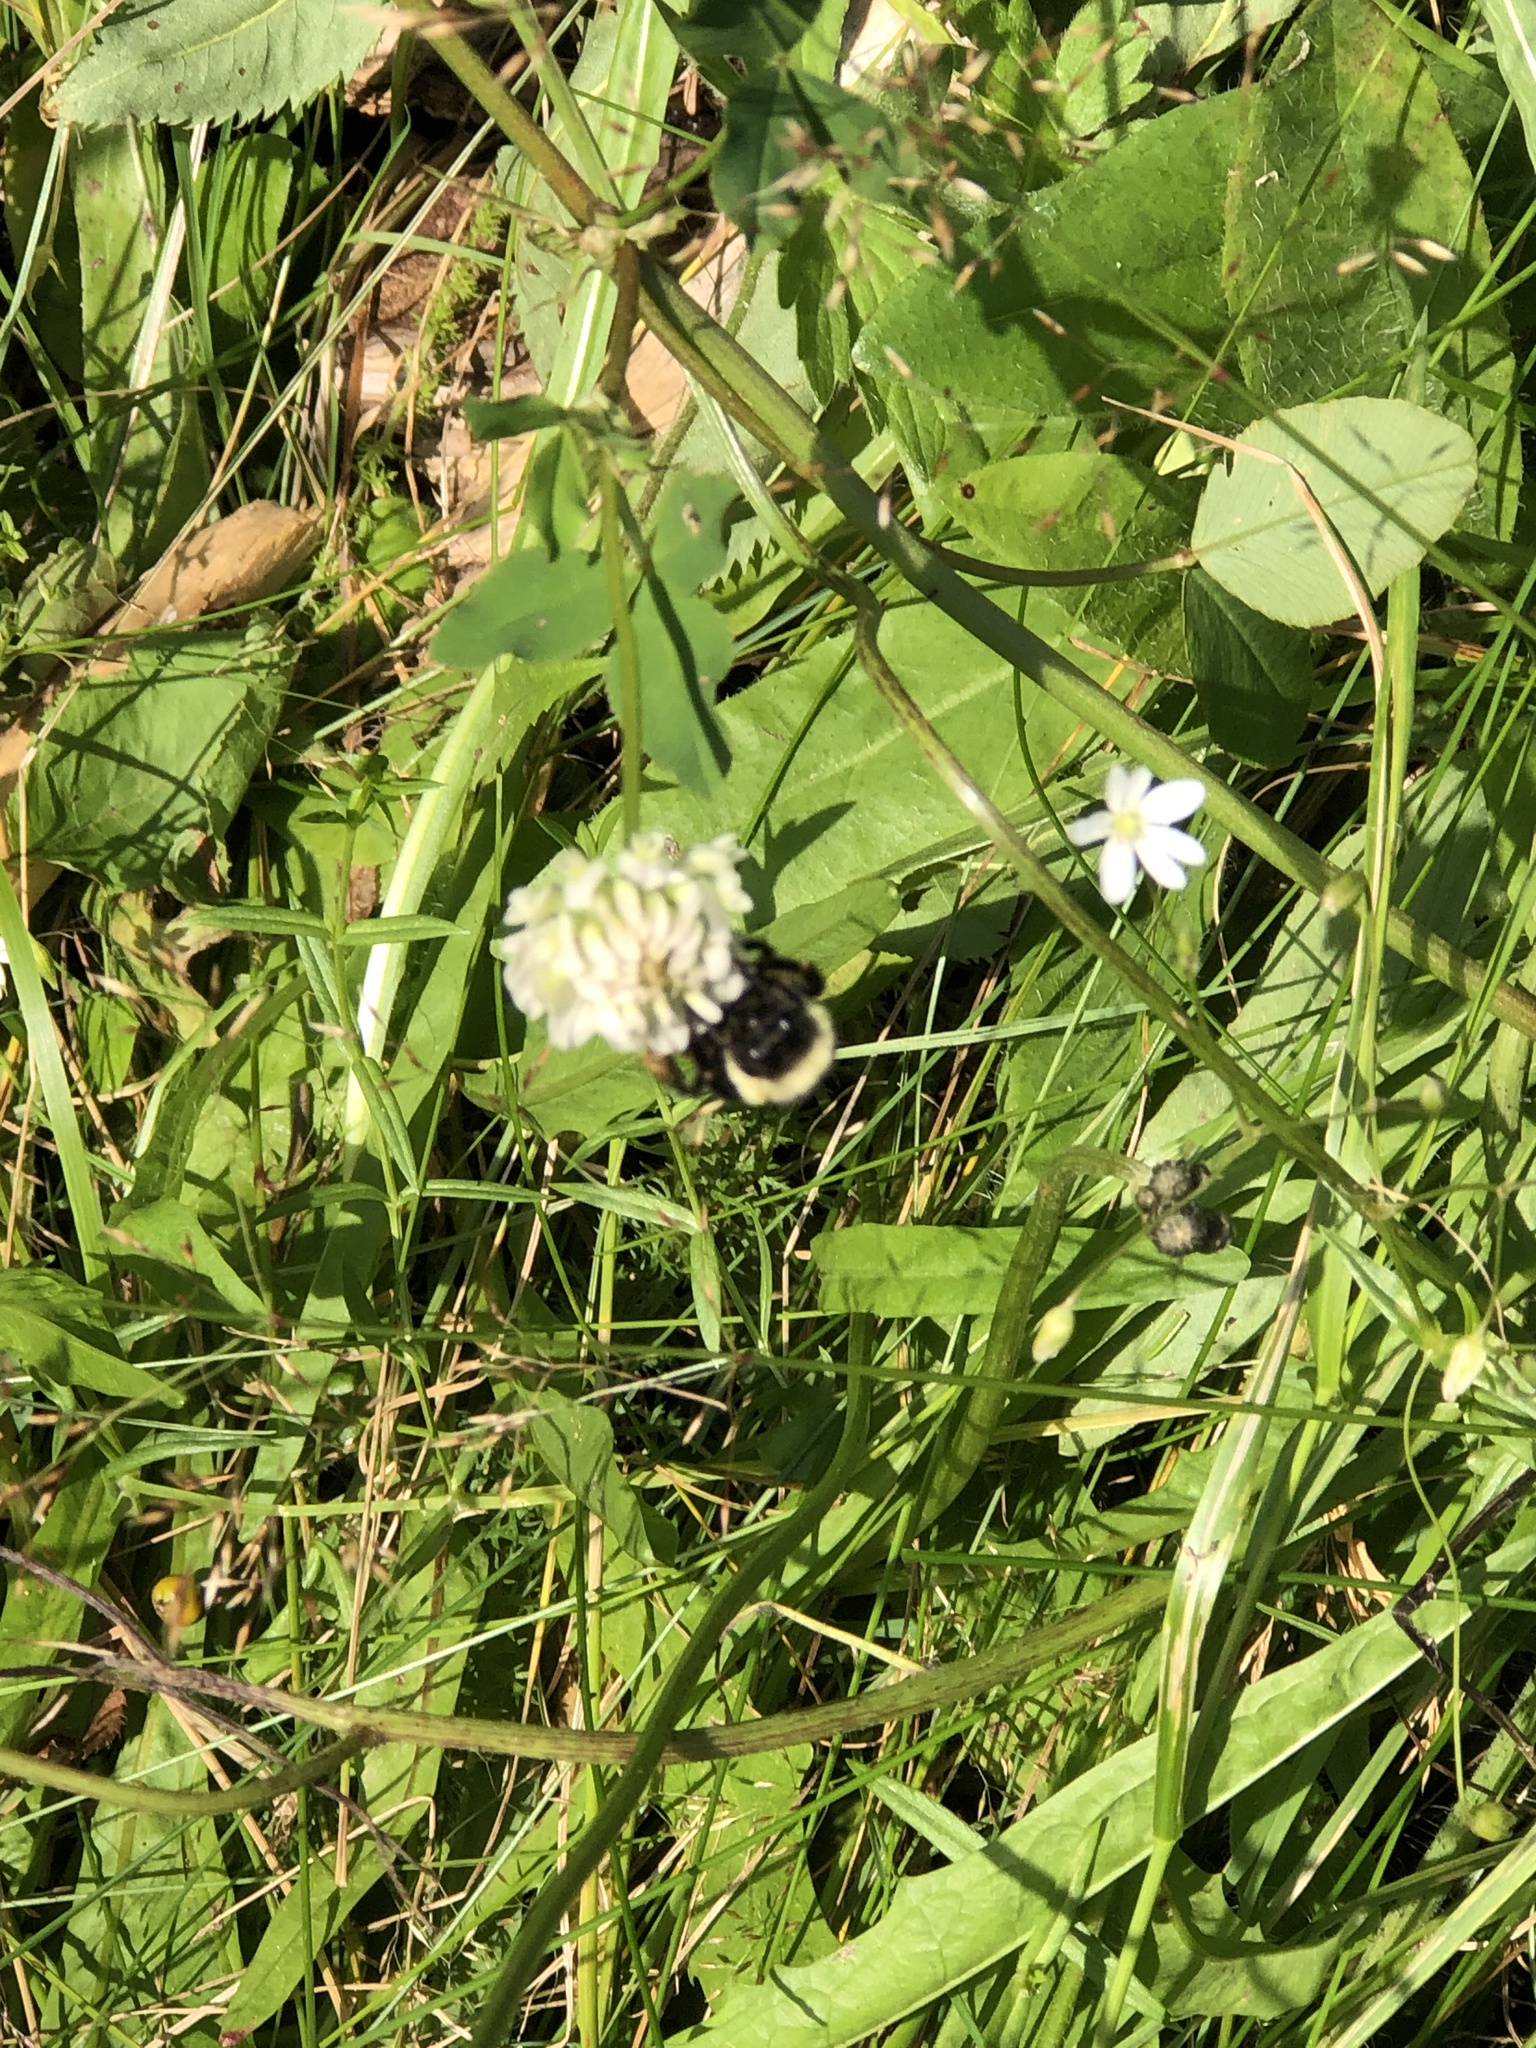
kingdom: Animalia
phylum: Arthropoda
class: Insecta
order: Hymenoptera
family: Apidae
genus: Bombus
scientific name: Bombus ternarius
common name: Tri-colored bumble bee
